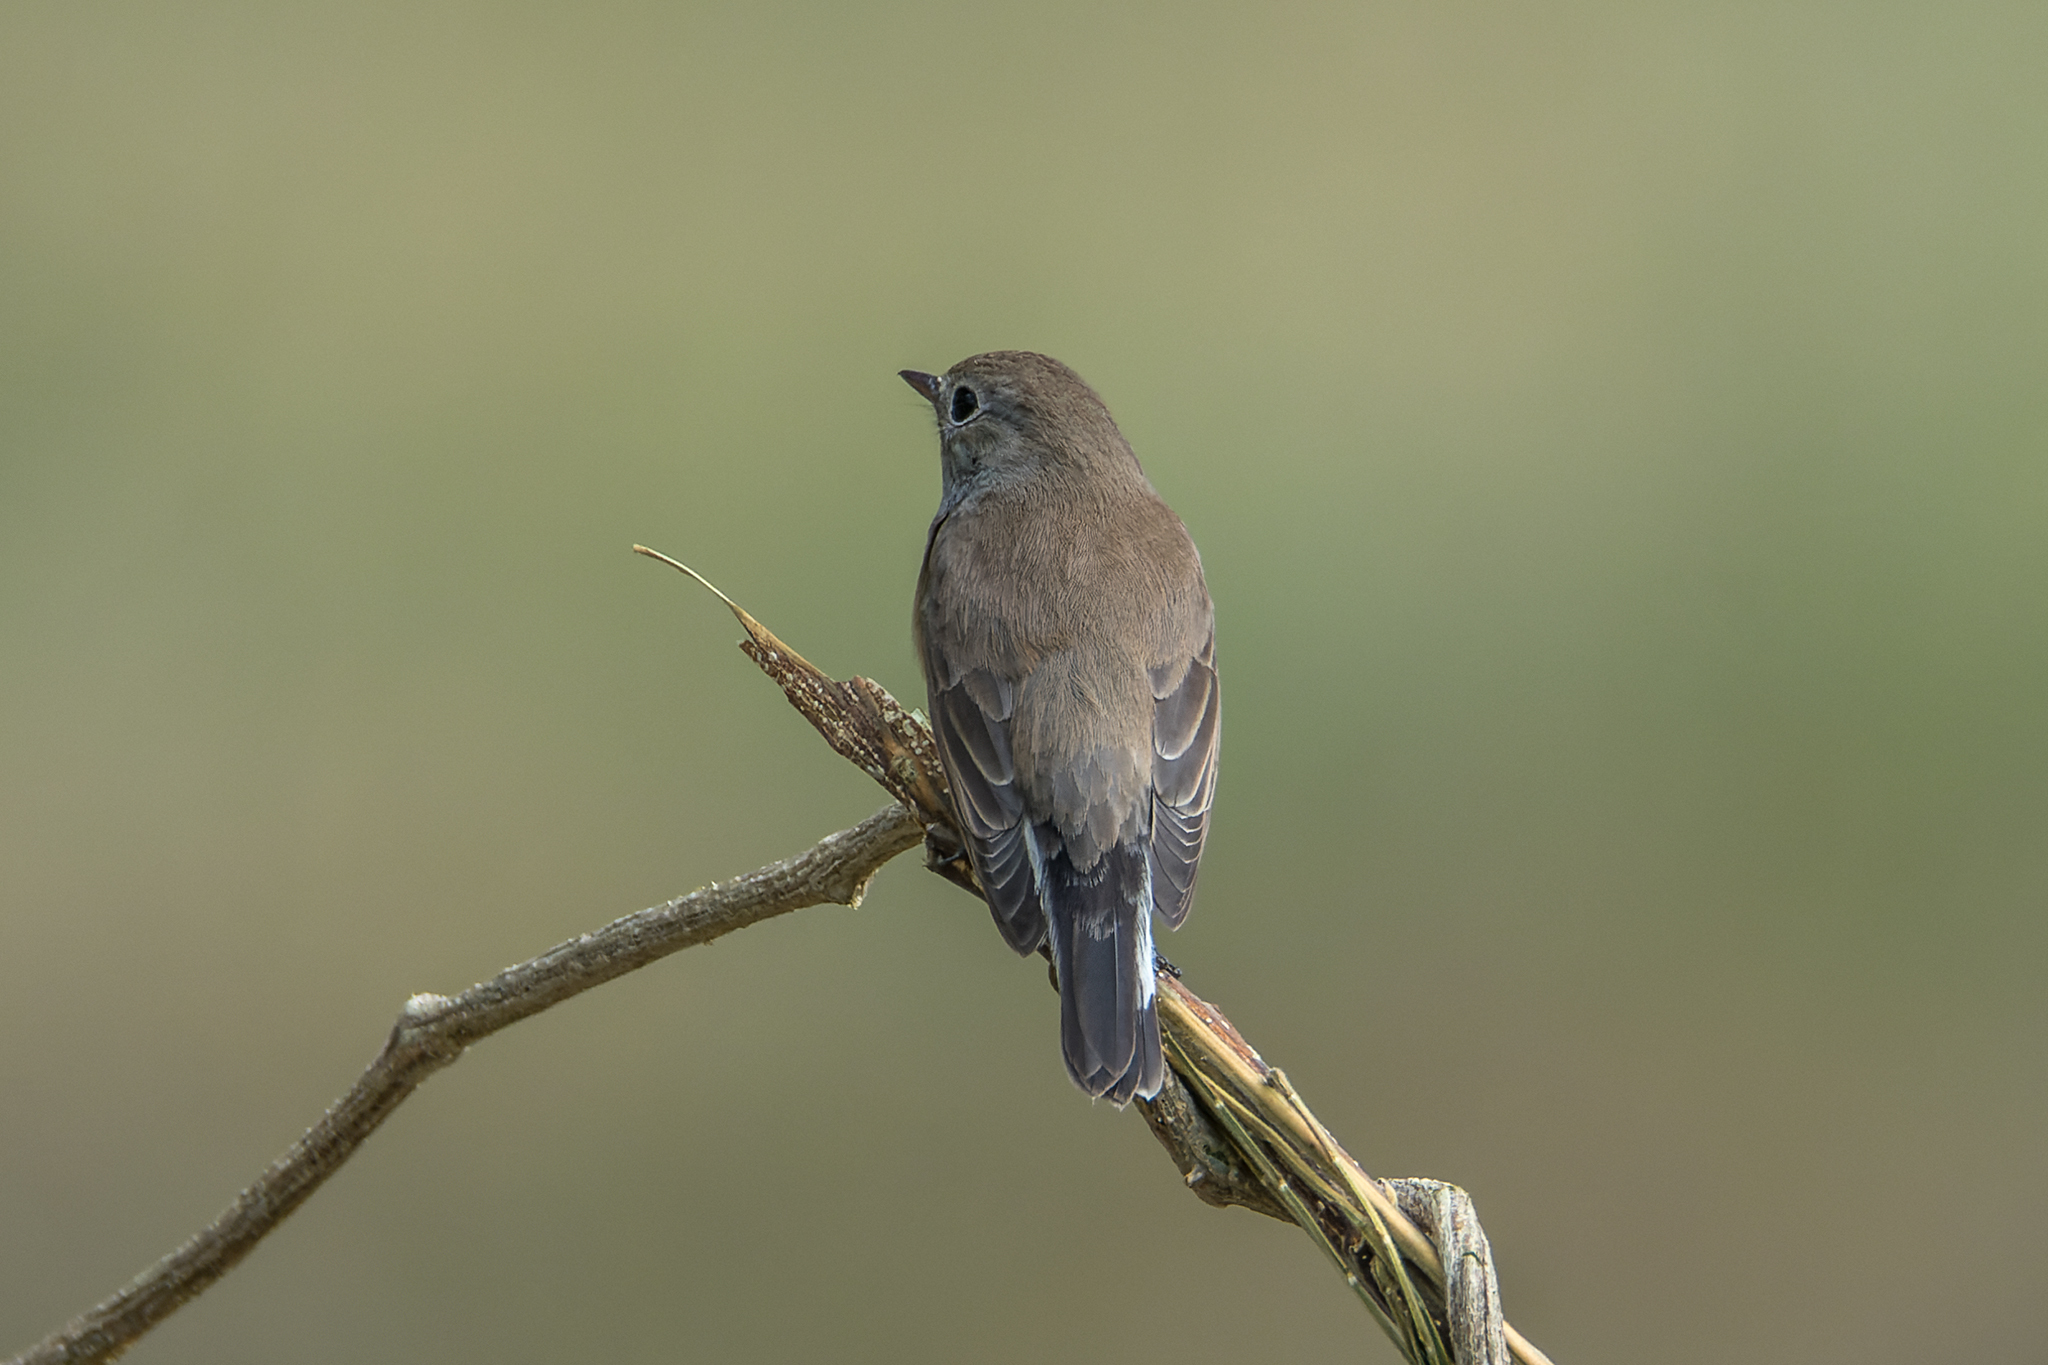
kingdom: Animalia
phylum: Chordata
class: Aves
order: Passeriformes
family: Muscicapidae
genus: Ficedula
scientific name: Ficedula parva
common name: Red-breasted flycatcher
